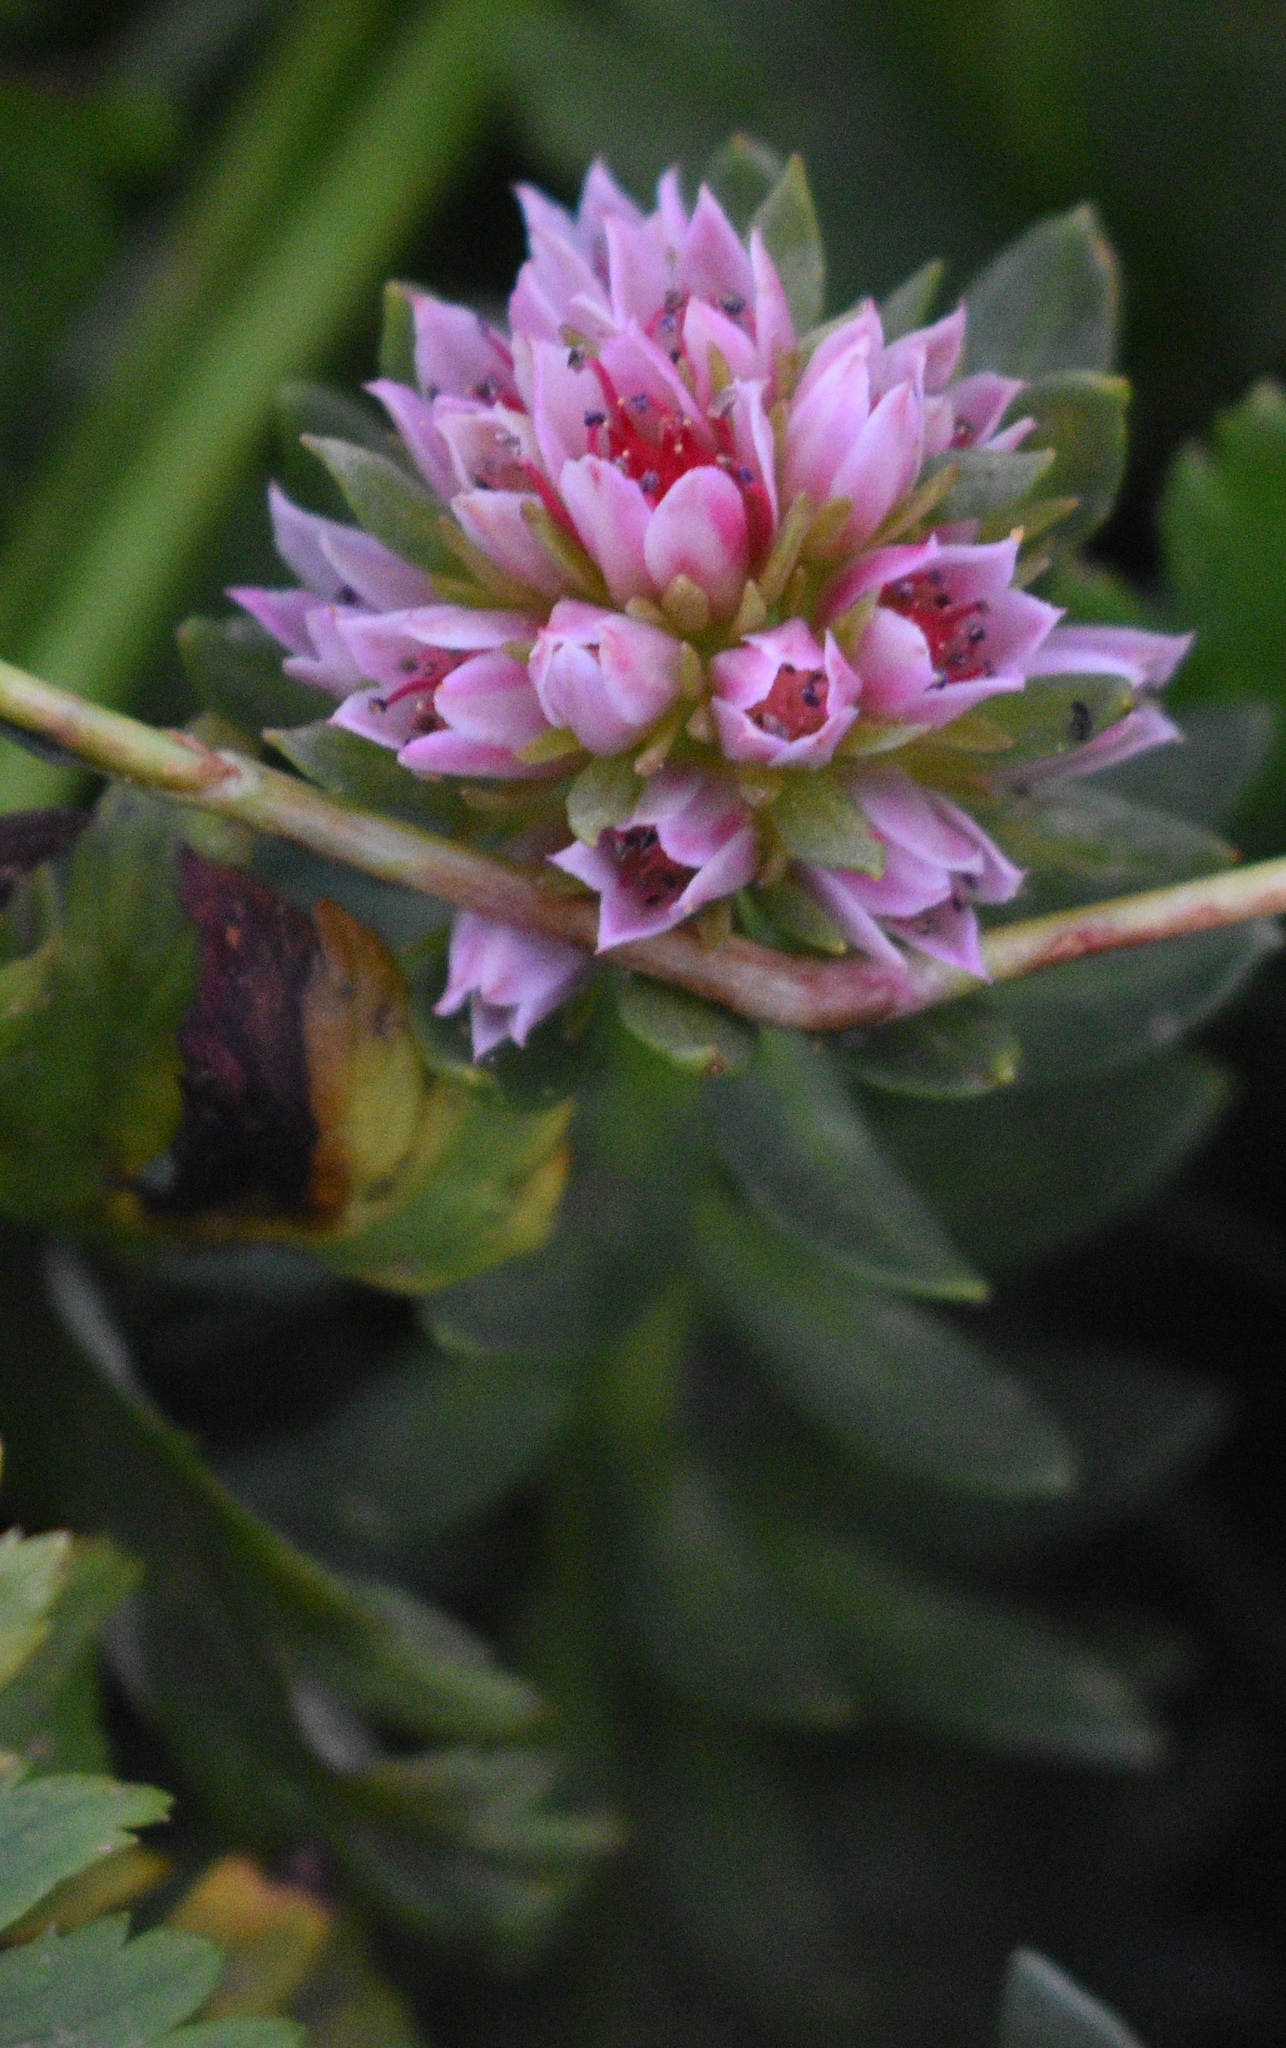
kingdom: Plantae
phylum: Tracheophyta
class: Magnoliopsida
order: Saxifragales
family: Crassulaceae
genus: Rhodiola
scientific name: Rhodiola rhodantha
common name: Red orpine
